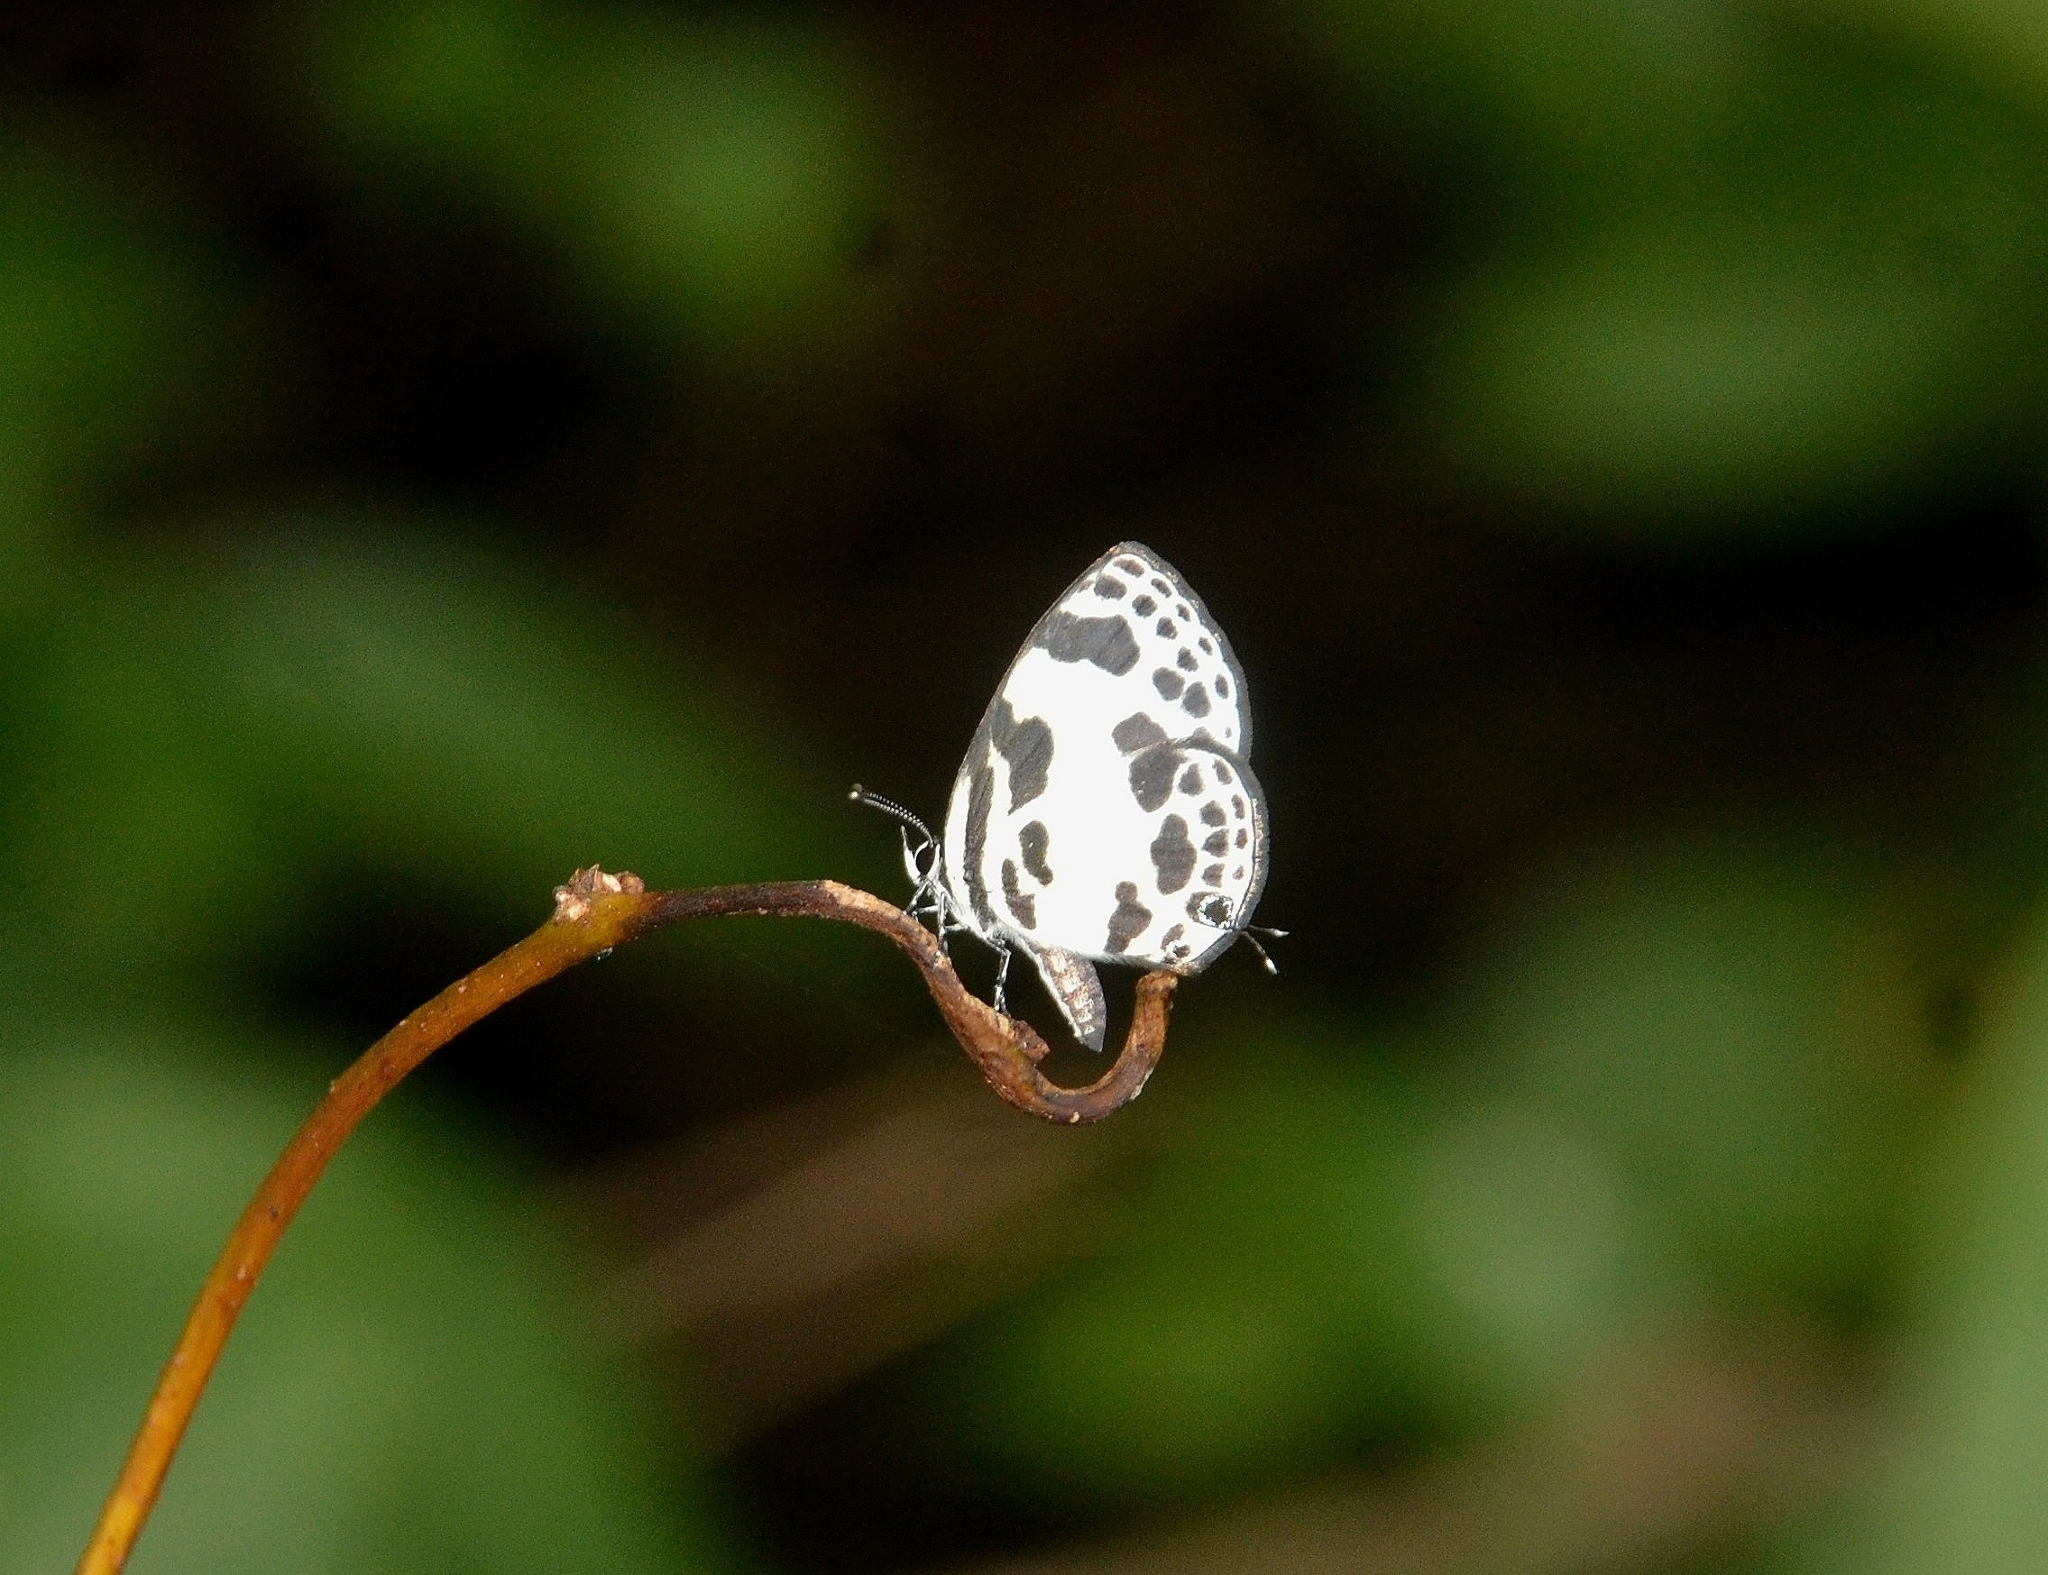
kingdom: Animalia
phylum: Arthropoda
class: Insecta
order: Lepidoptera
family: Lycaenidae
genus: Discolampa
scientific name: Discolampa ethion
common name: Banded blue pierrot
